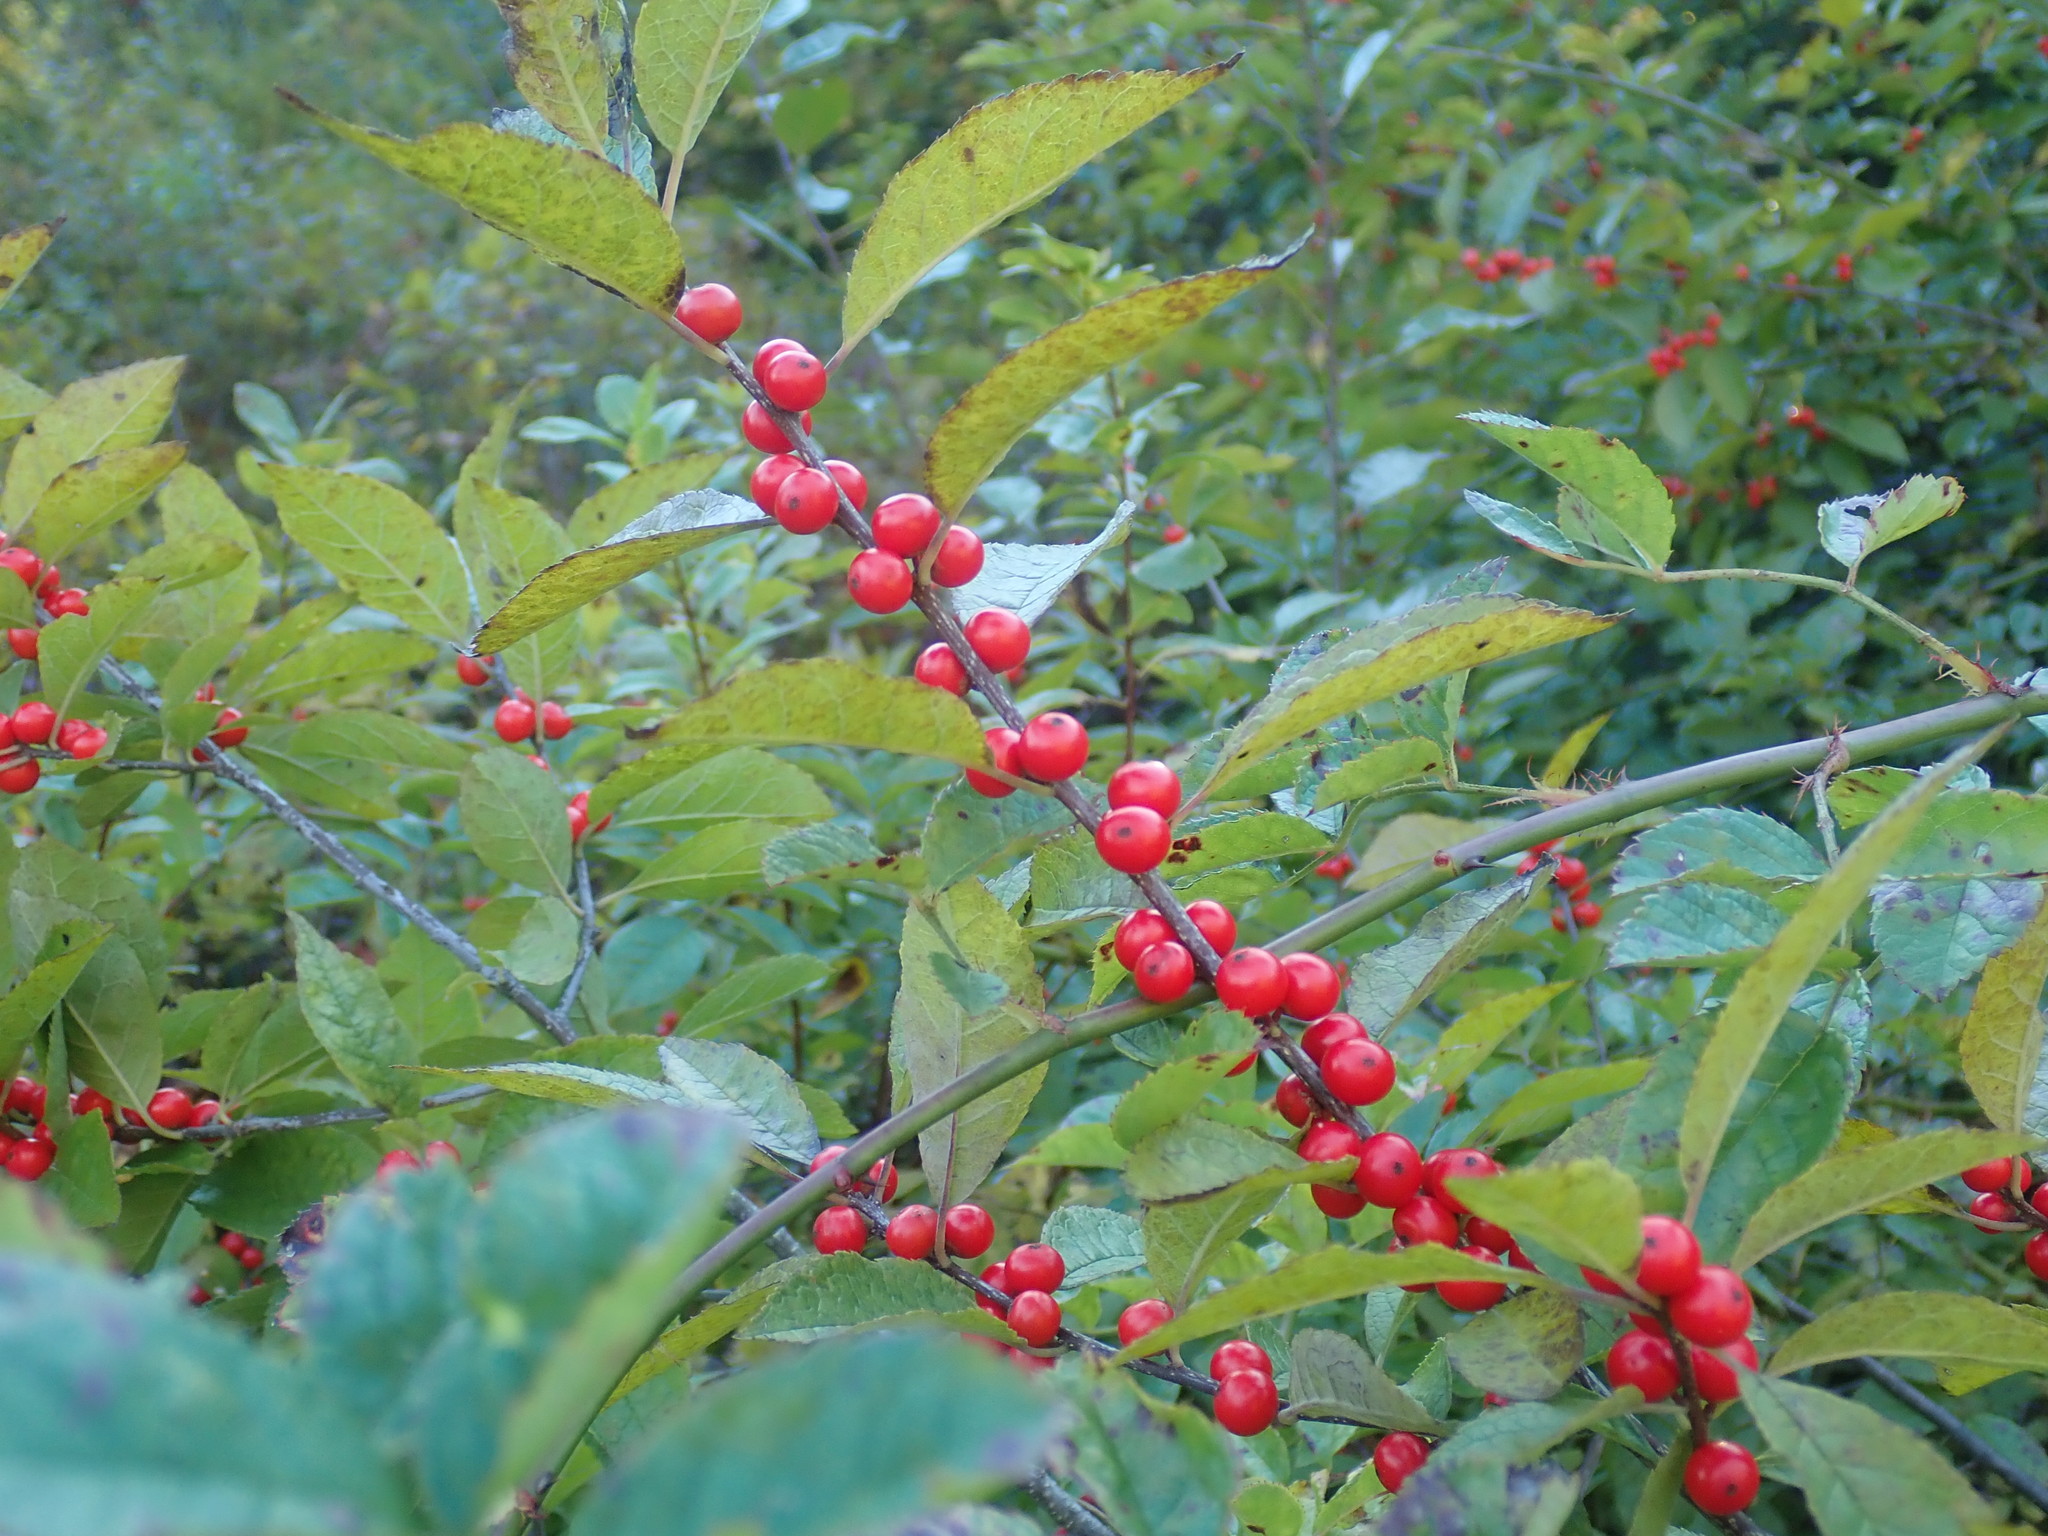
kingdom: Plantae
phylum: Tracheophyta
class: Magnoliopsida
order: Aquifoliales
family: Aquifoliaceae
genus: Ilex
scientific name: Ilex verticillata
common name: Virginia winterberry
